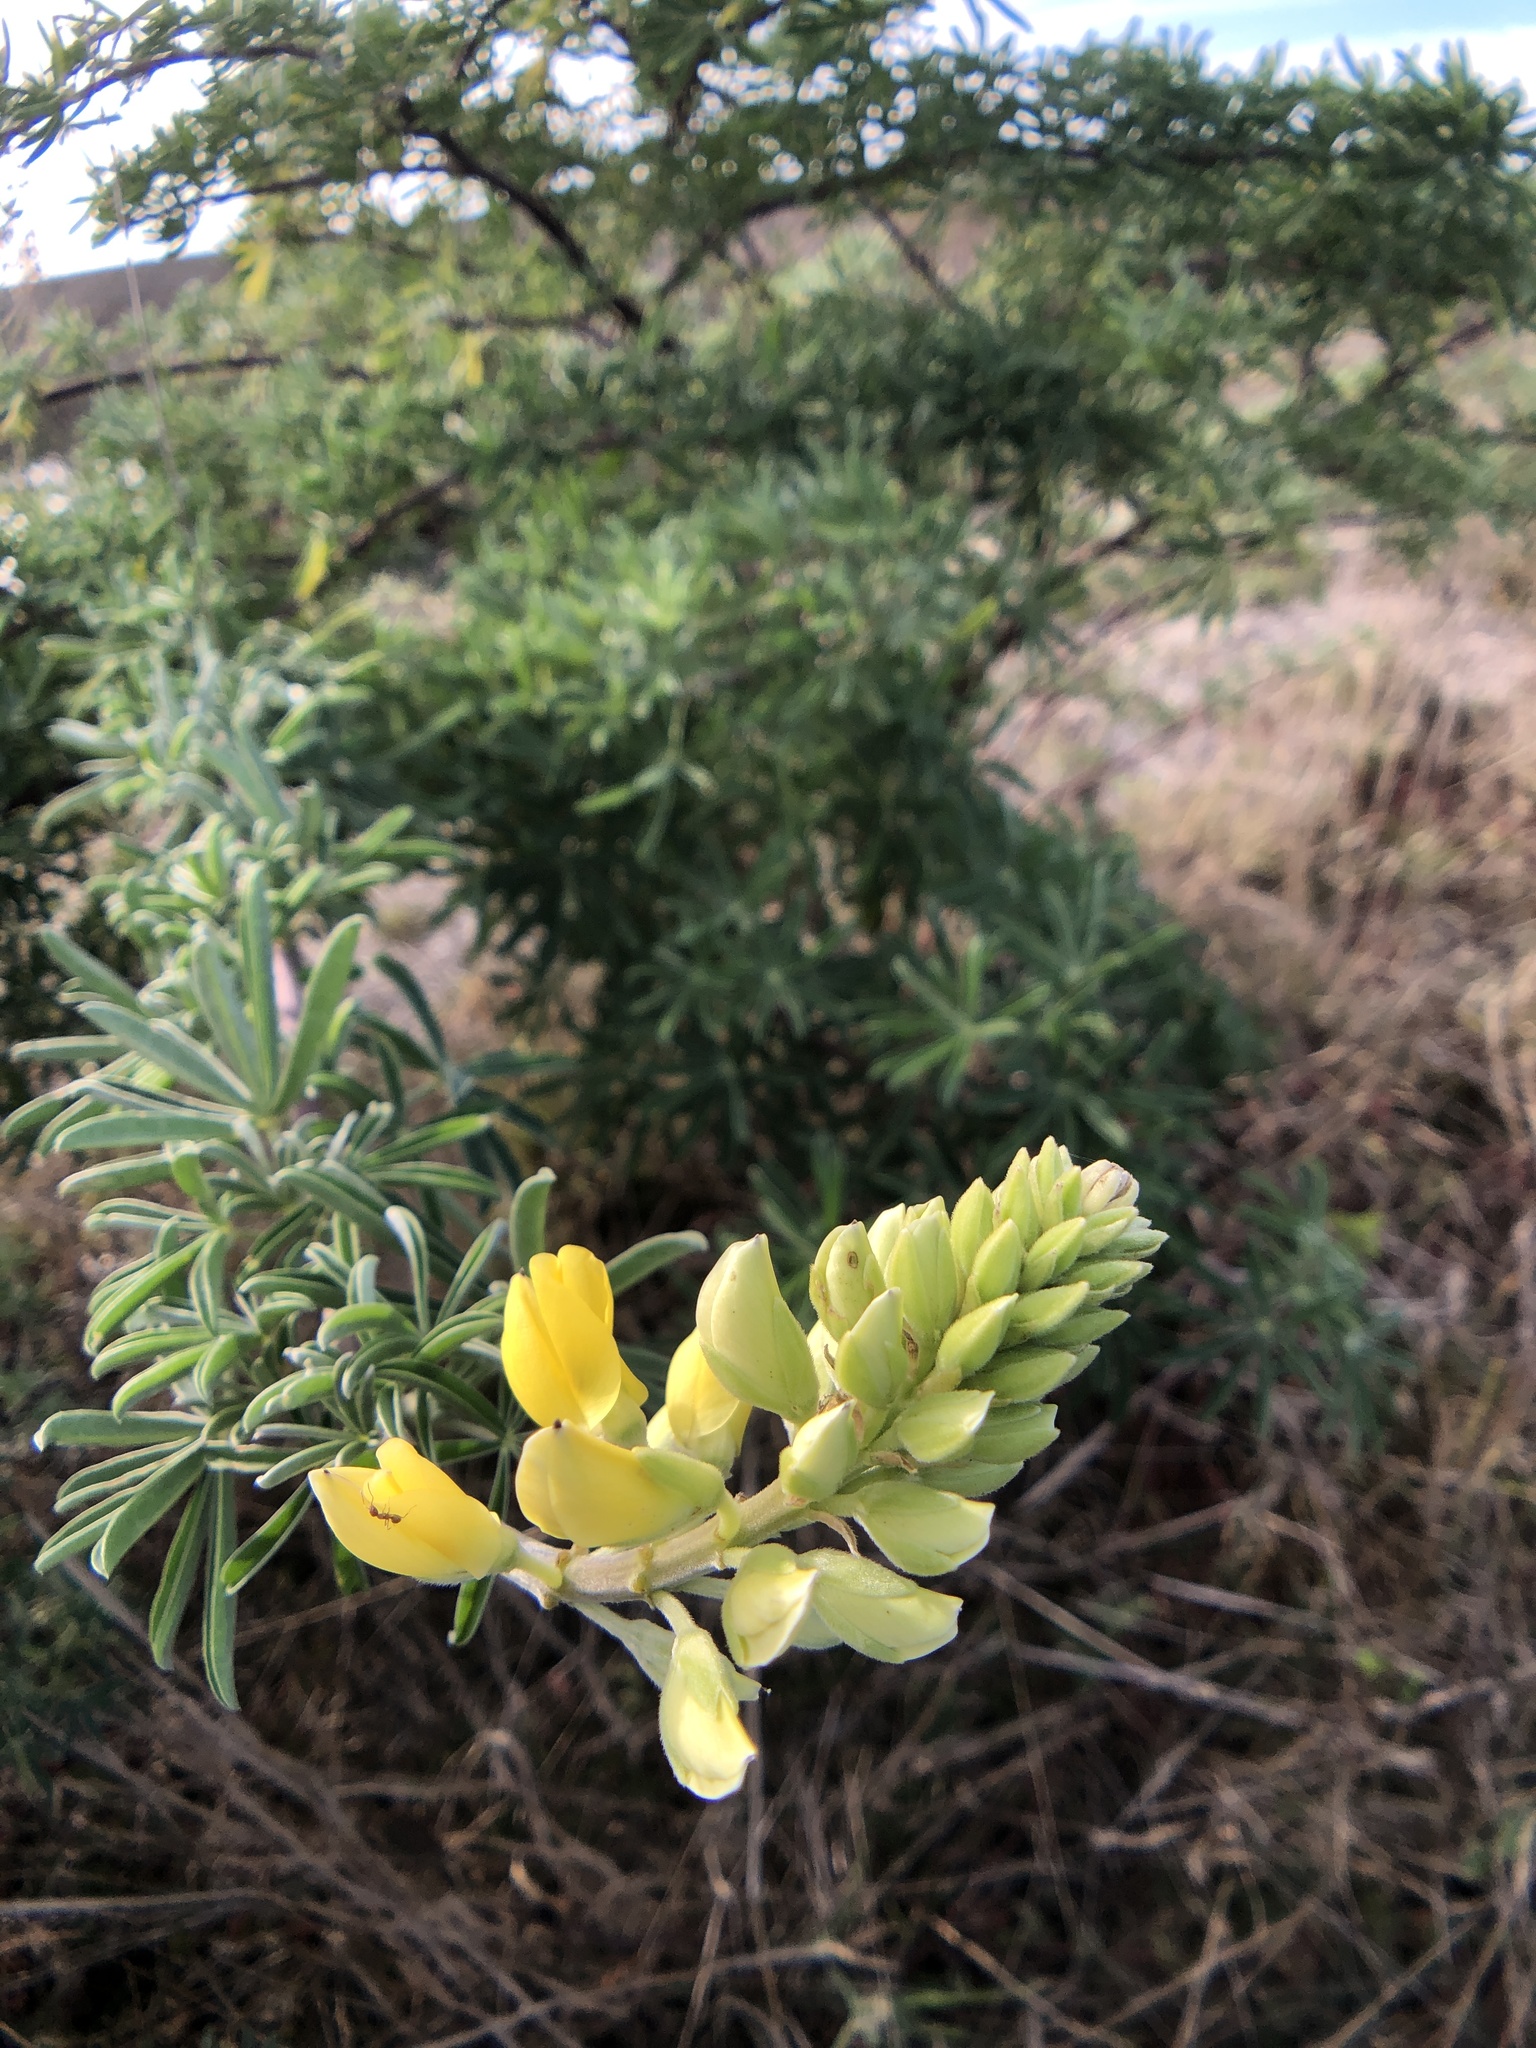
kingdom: Plantae
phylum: Tracheophyta
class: Magnoliopsida
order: Fabales
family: Fabaceae
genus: Lupinus
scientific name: Lupinus arboreus
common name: Yellow bush lupine
